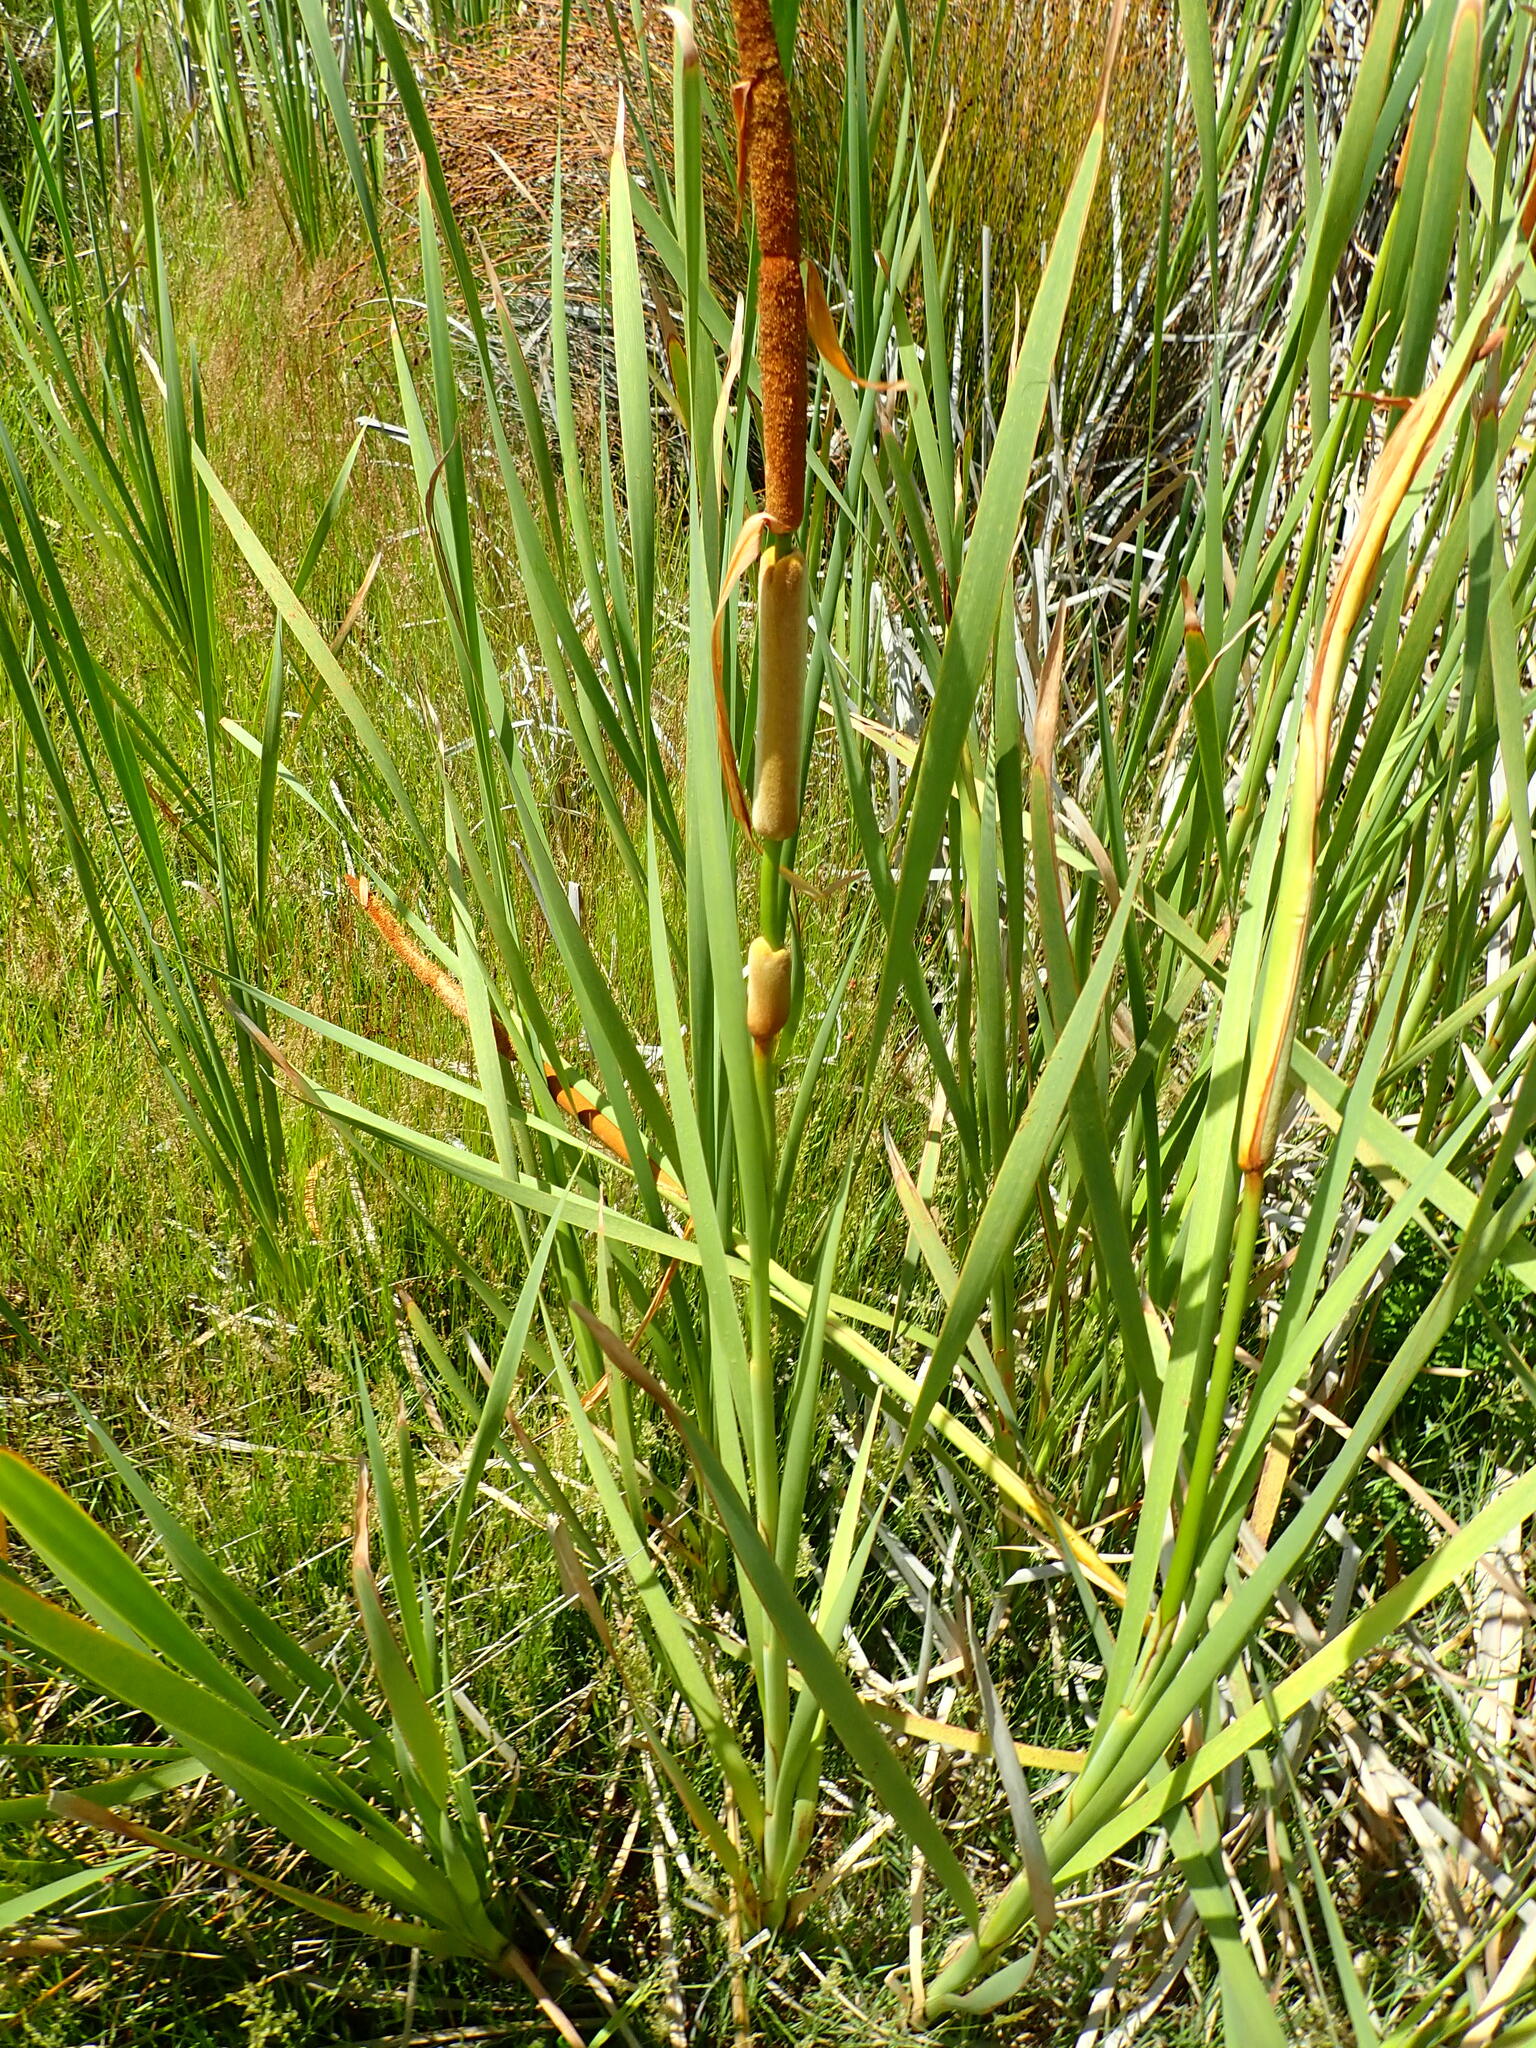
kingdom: Plantae
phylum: Tracheophyta
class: Liliopsida
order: Poales
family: Typhaceae
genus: Typha
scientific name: Typha orientalis
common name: Bullrush
